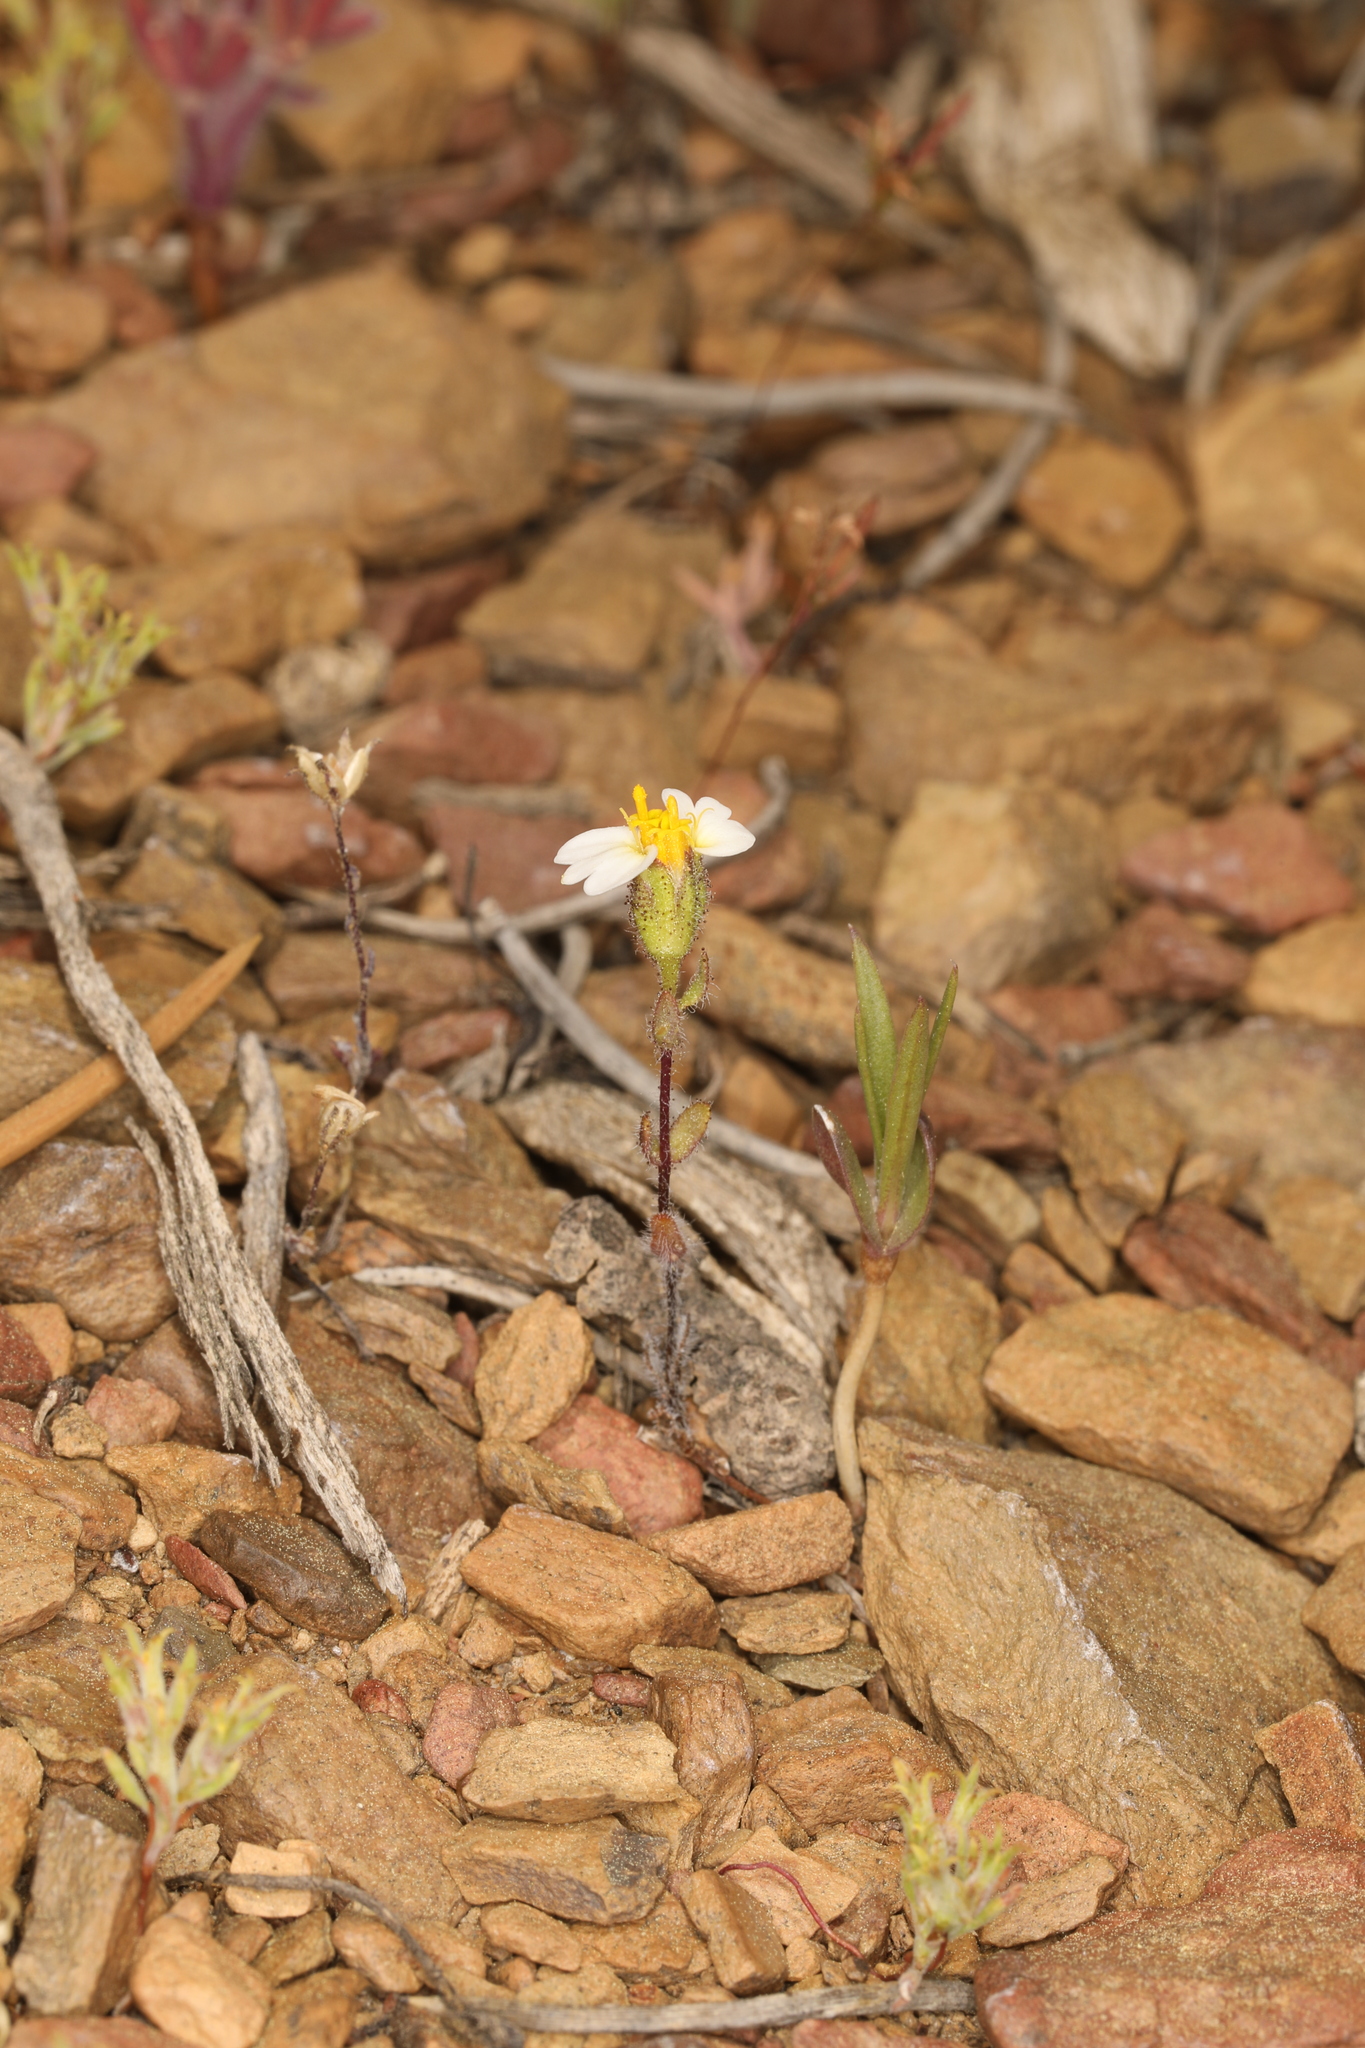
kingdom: Plantae
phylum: Tracheophyta
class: Magnoliopsida
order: Asterales
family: Asteraceae
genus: Layia
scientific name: Layia glandulosa
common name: White layia
